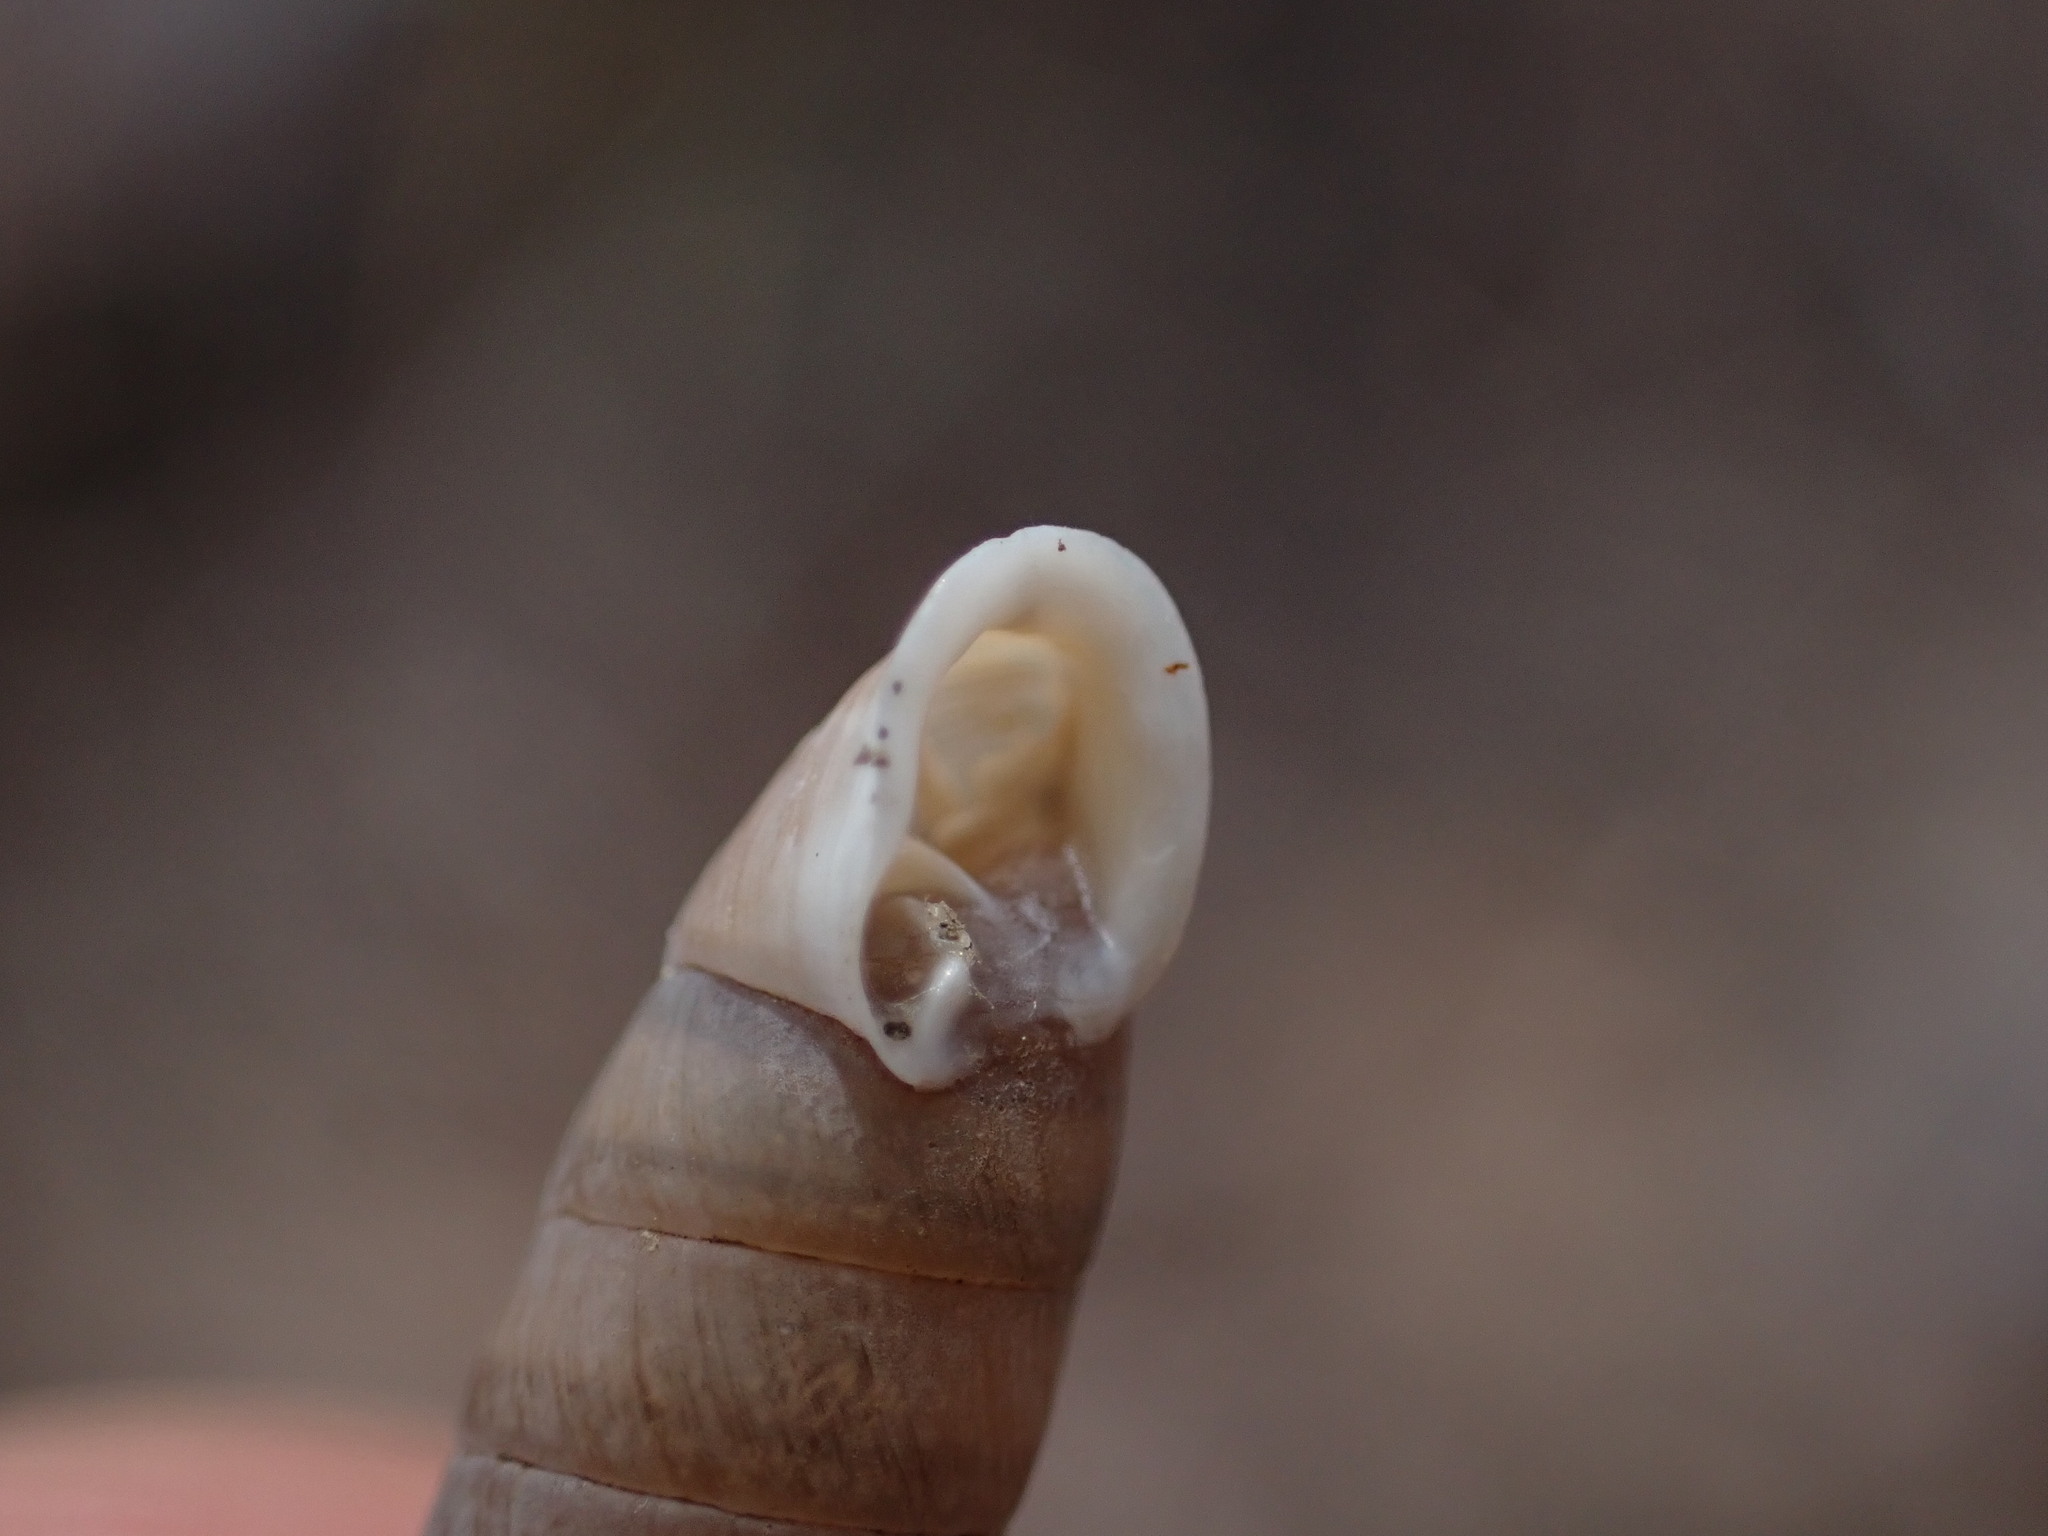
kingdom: Animalia
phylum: Mollusca
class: Gastropoda
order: Stylommatophora
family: Chondrinidae
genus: Granaria
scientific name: Granaria variabilis
